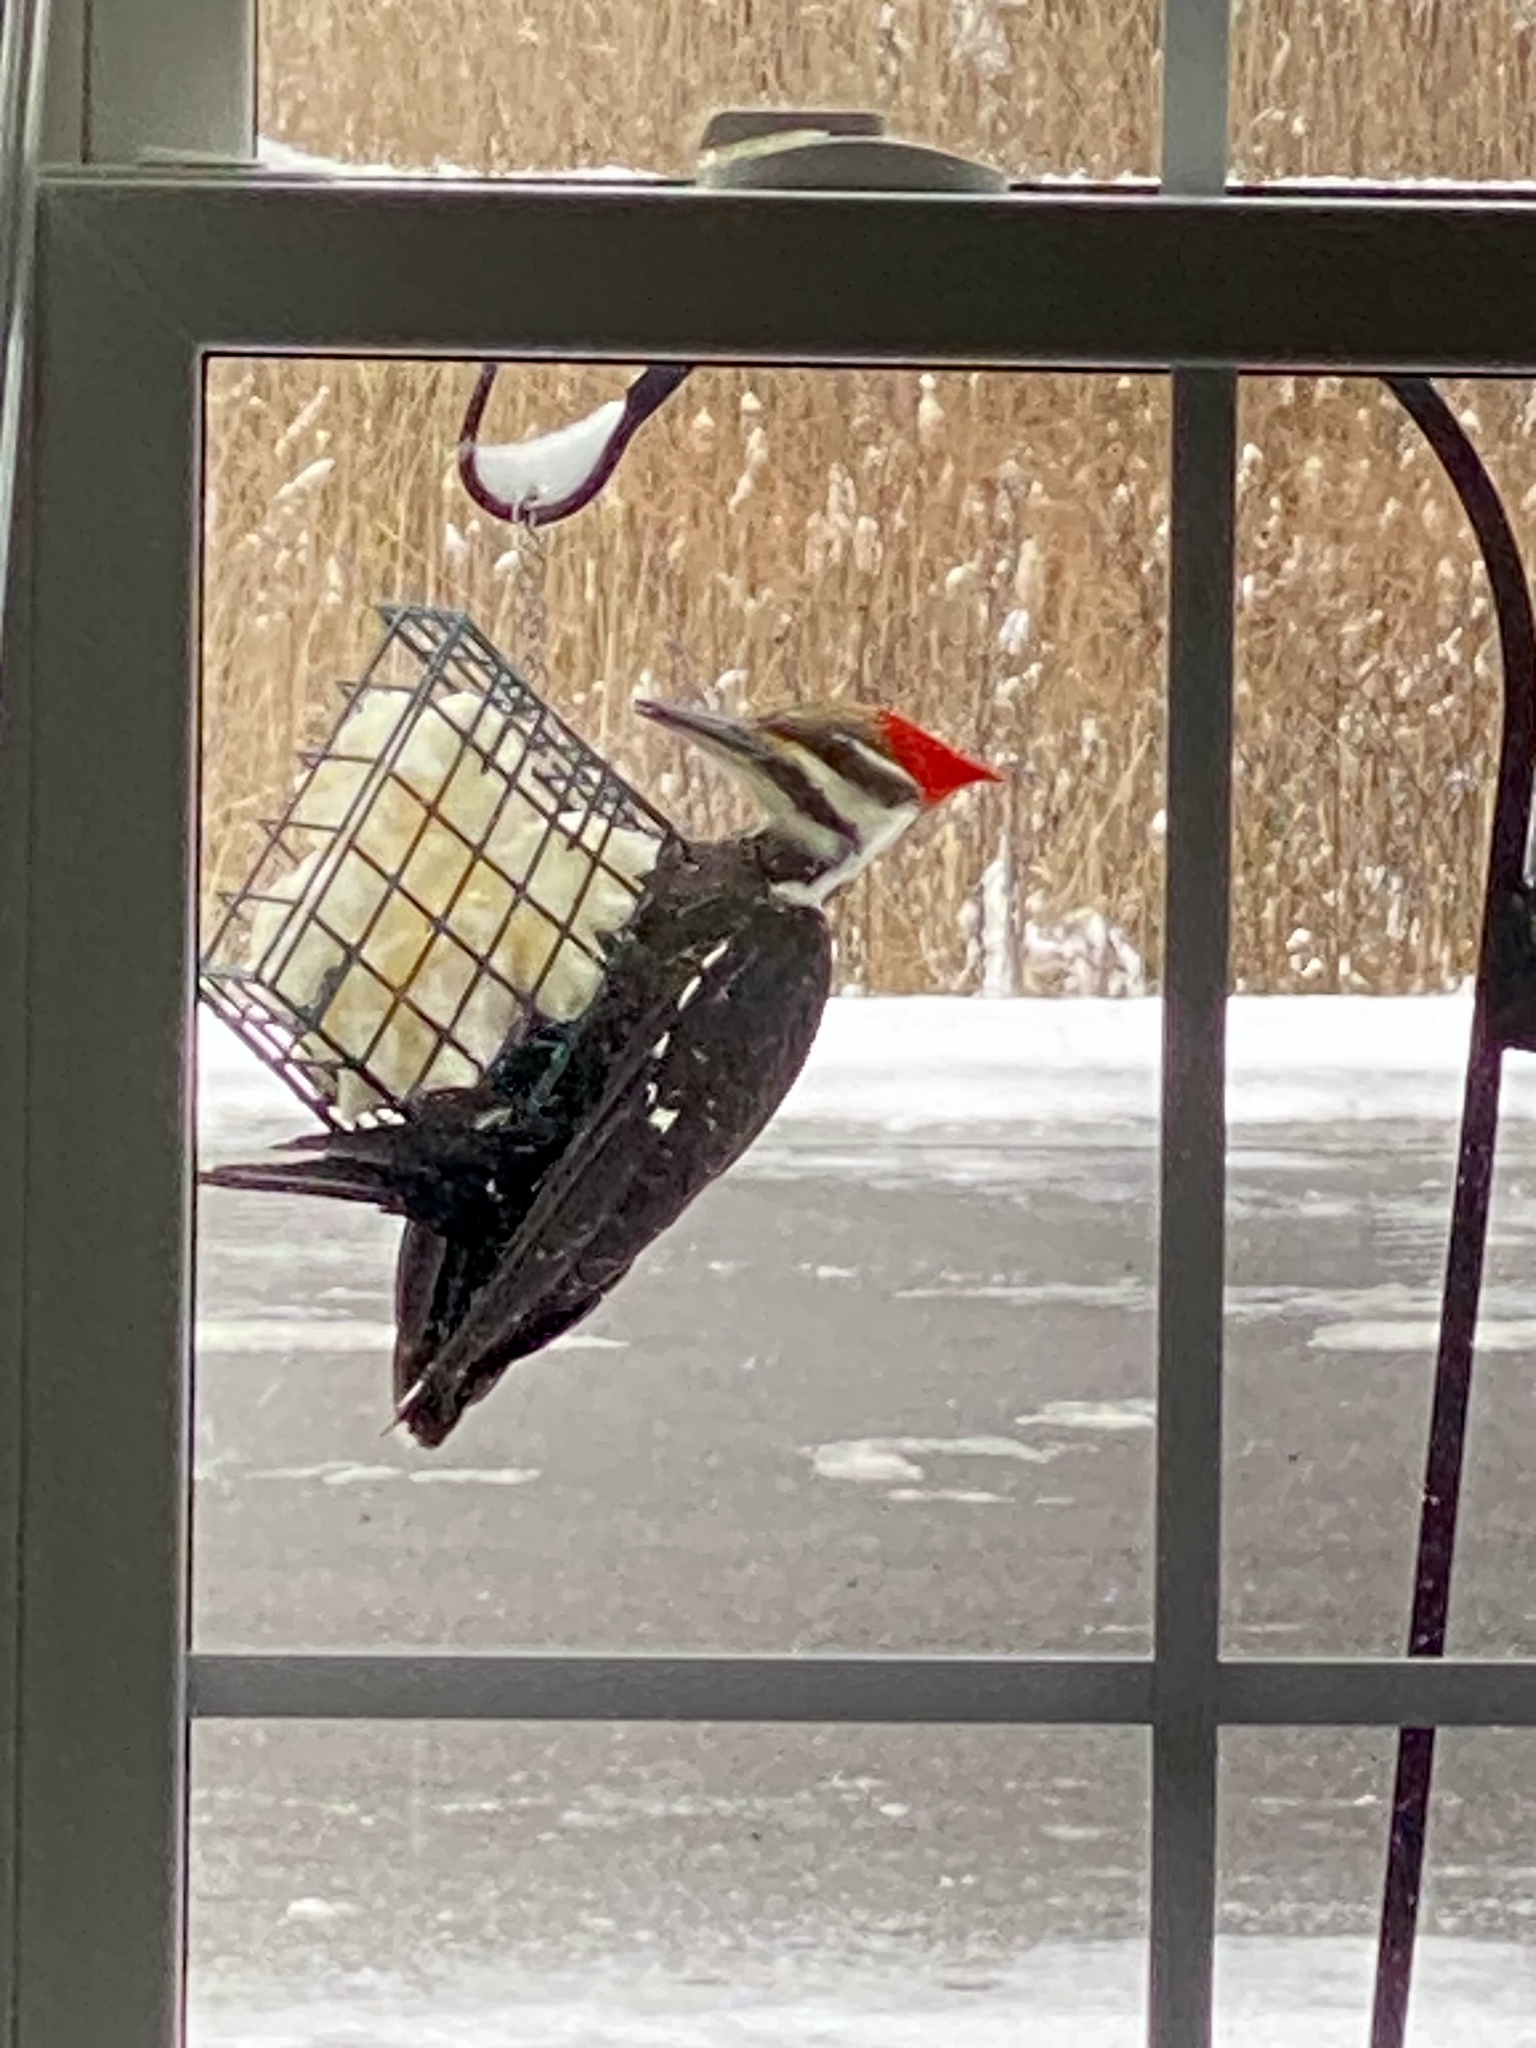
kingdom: Animalia
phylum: Chordata
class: Aves
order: Piciformes
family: Picidae
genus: Dryocopus
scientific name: Dryocopus pileatus
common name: Pileated woodpecker
